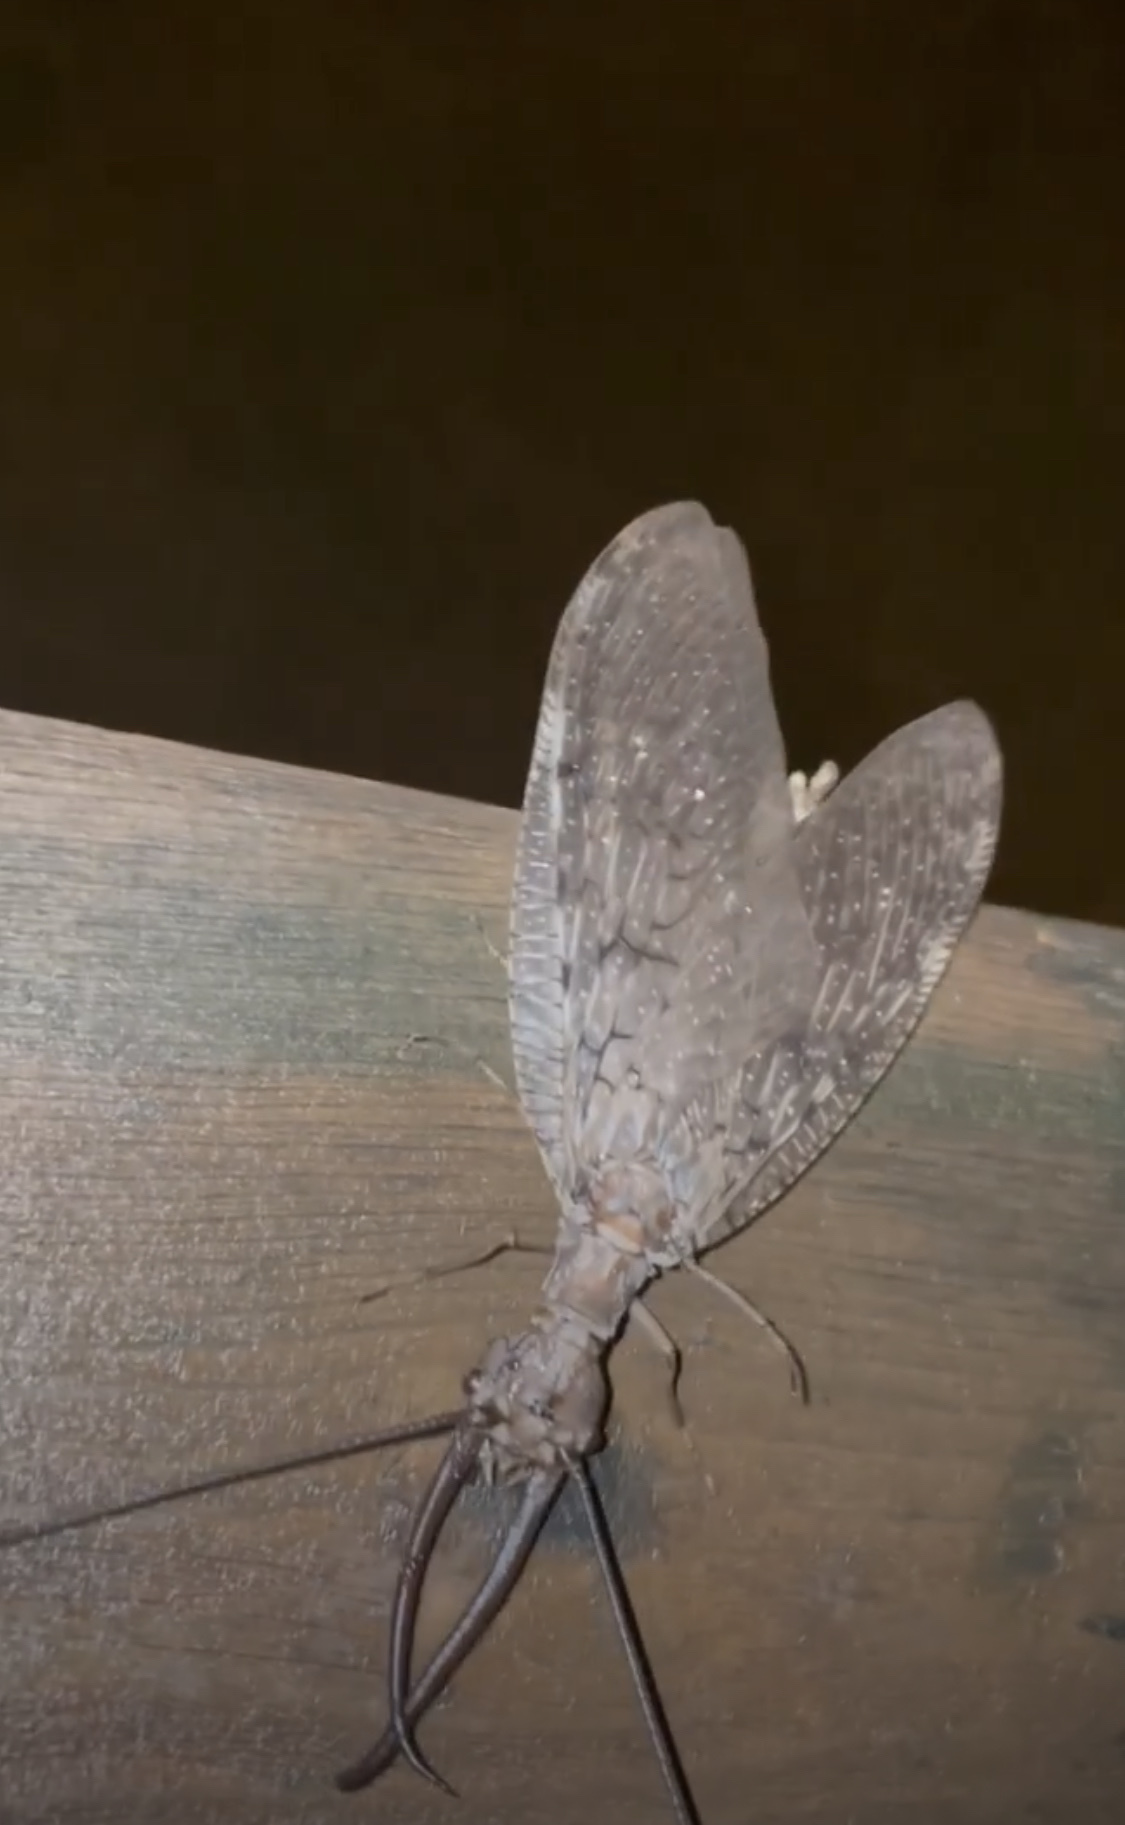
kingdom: Animalia
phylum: Arthropoda
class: Insecta
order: Megaloptera
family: Corydalidae
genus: Corydalus
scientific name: Corydalus cornutus
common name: Dobsonfly
